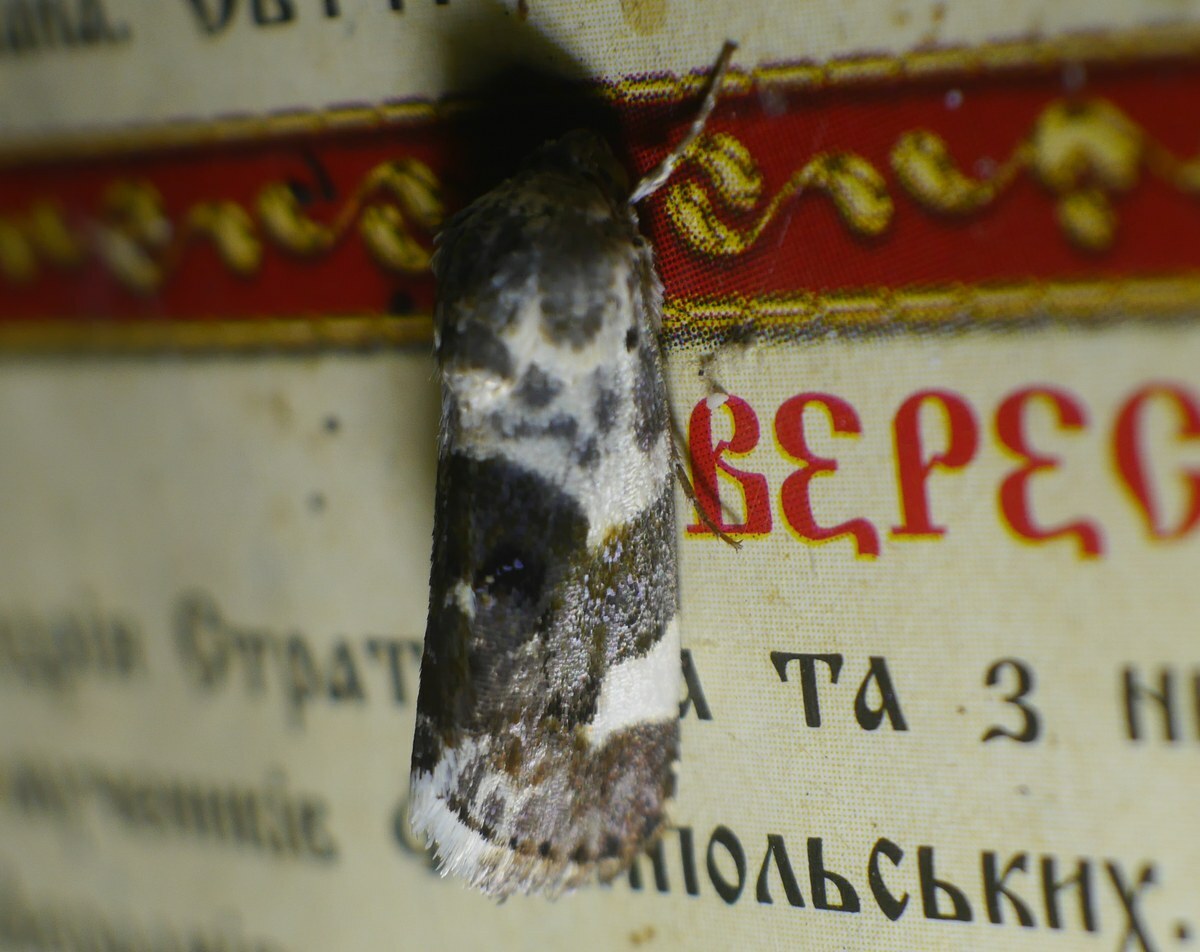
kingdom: Animalia
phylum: Arthropoda
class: Insecta
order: Lepidoptera
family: Noctuidae
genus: Acontia
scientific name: Acontia lucida
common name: Pale shoulder
